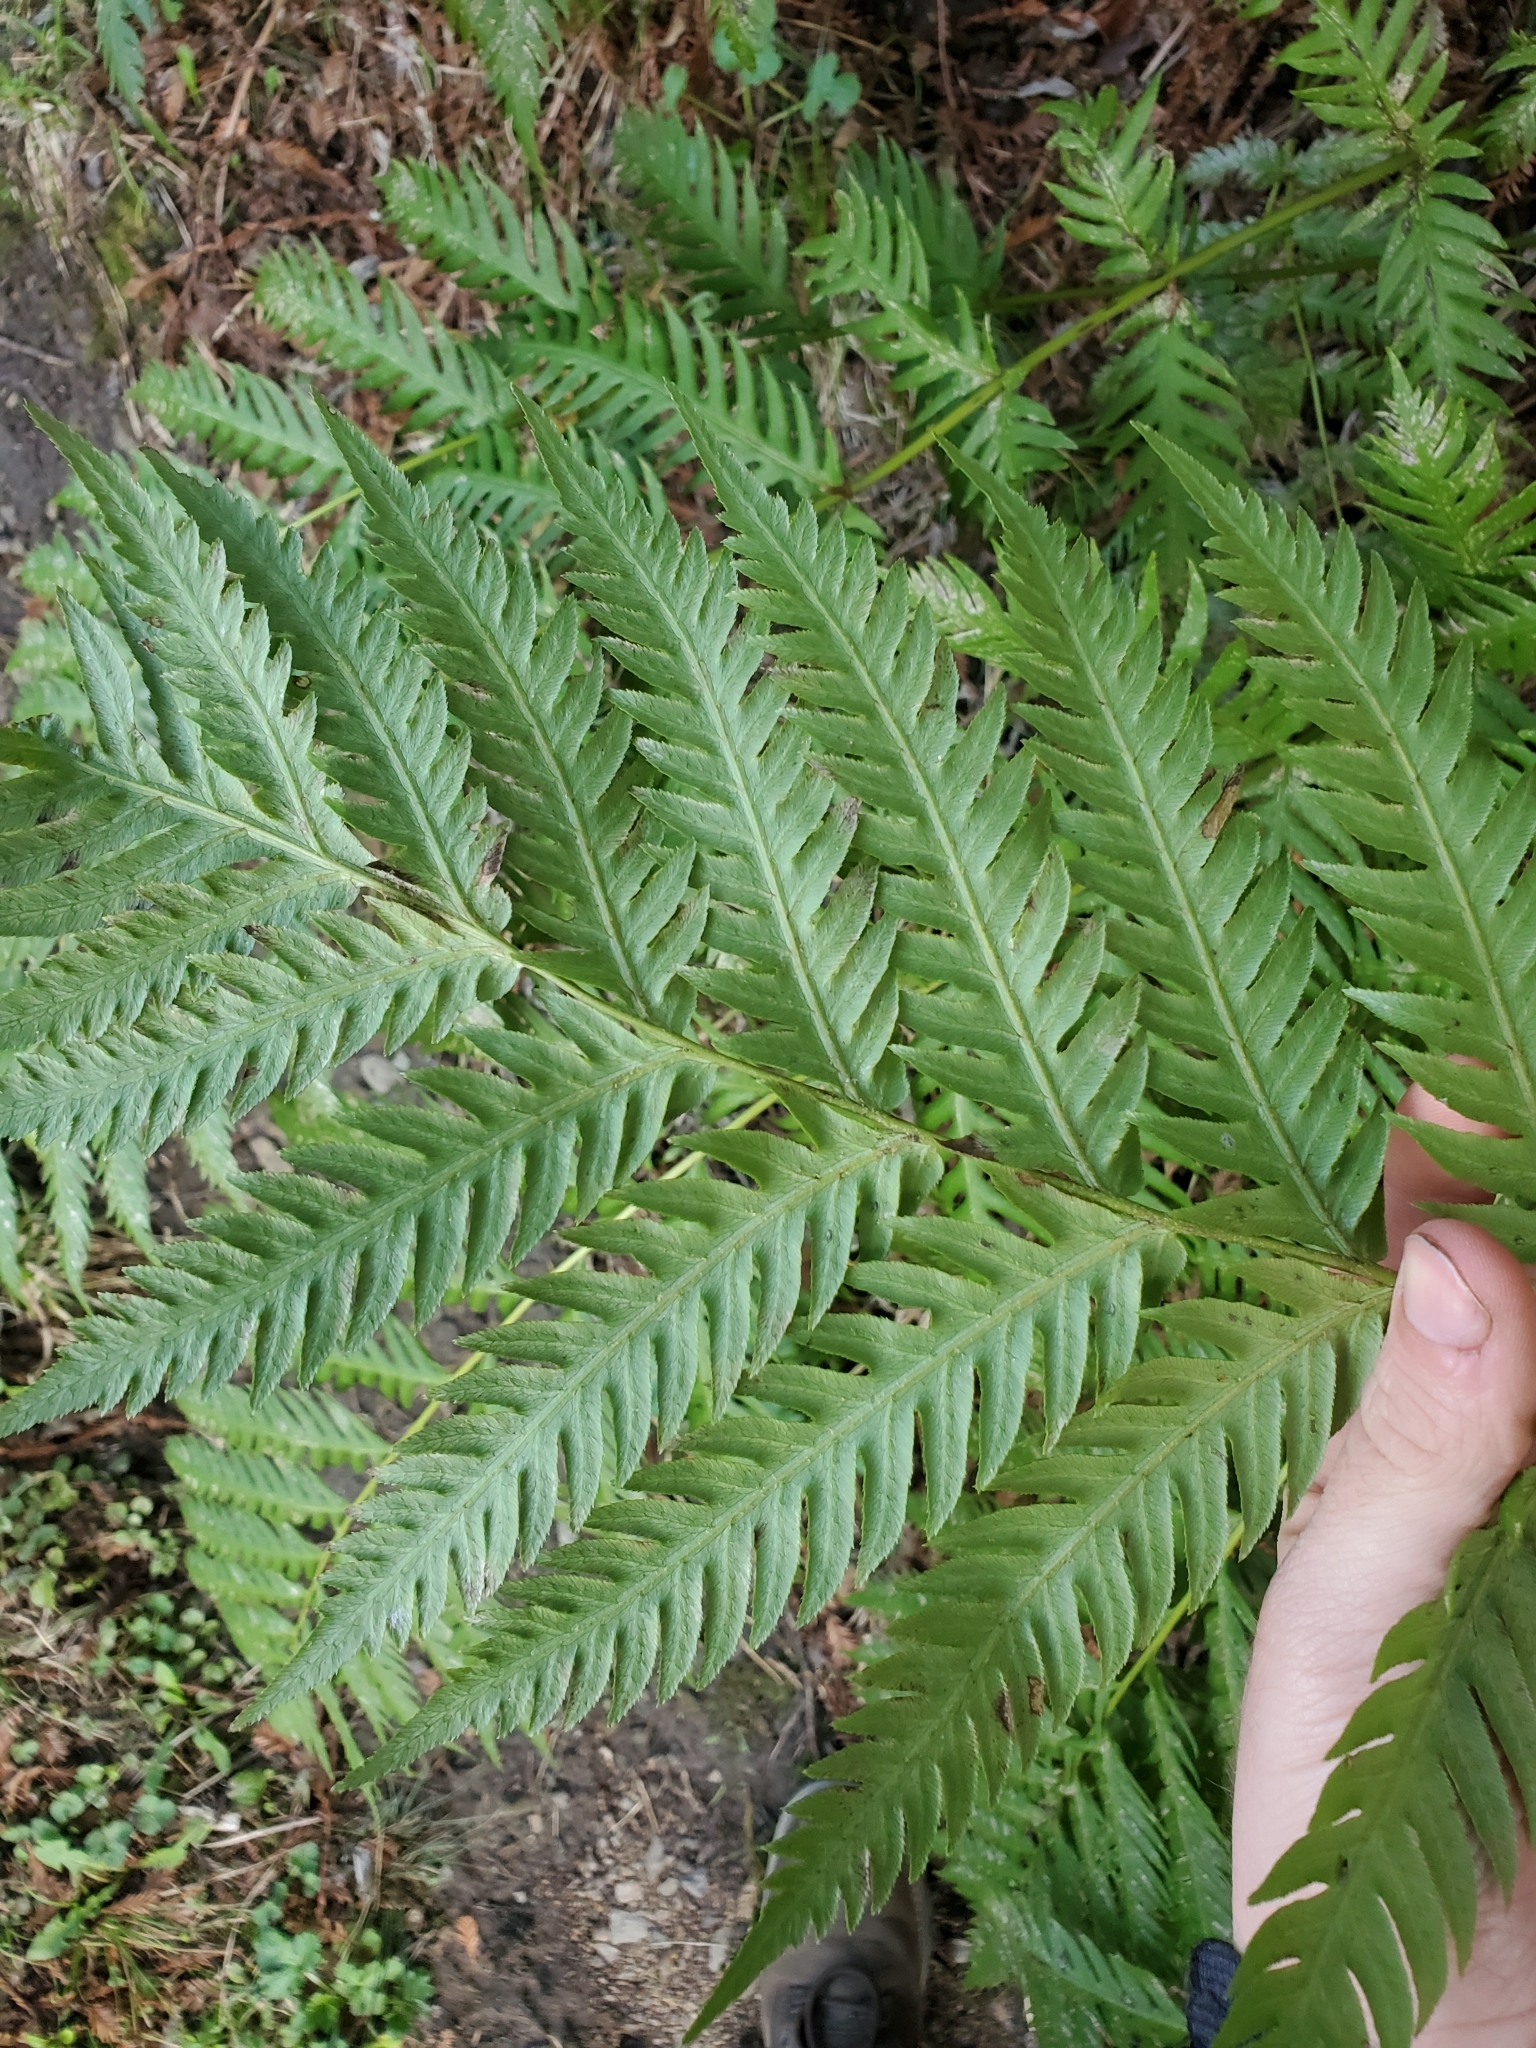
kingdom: Plantae
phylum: Tracheophyta
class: Polypodiopsida
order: Polypodiales
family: Blechnaceae
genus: Woodwardia
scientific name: Woodwardia fimbriata
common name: Giant chain fern
